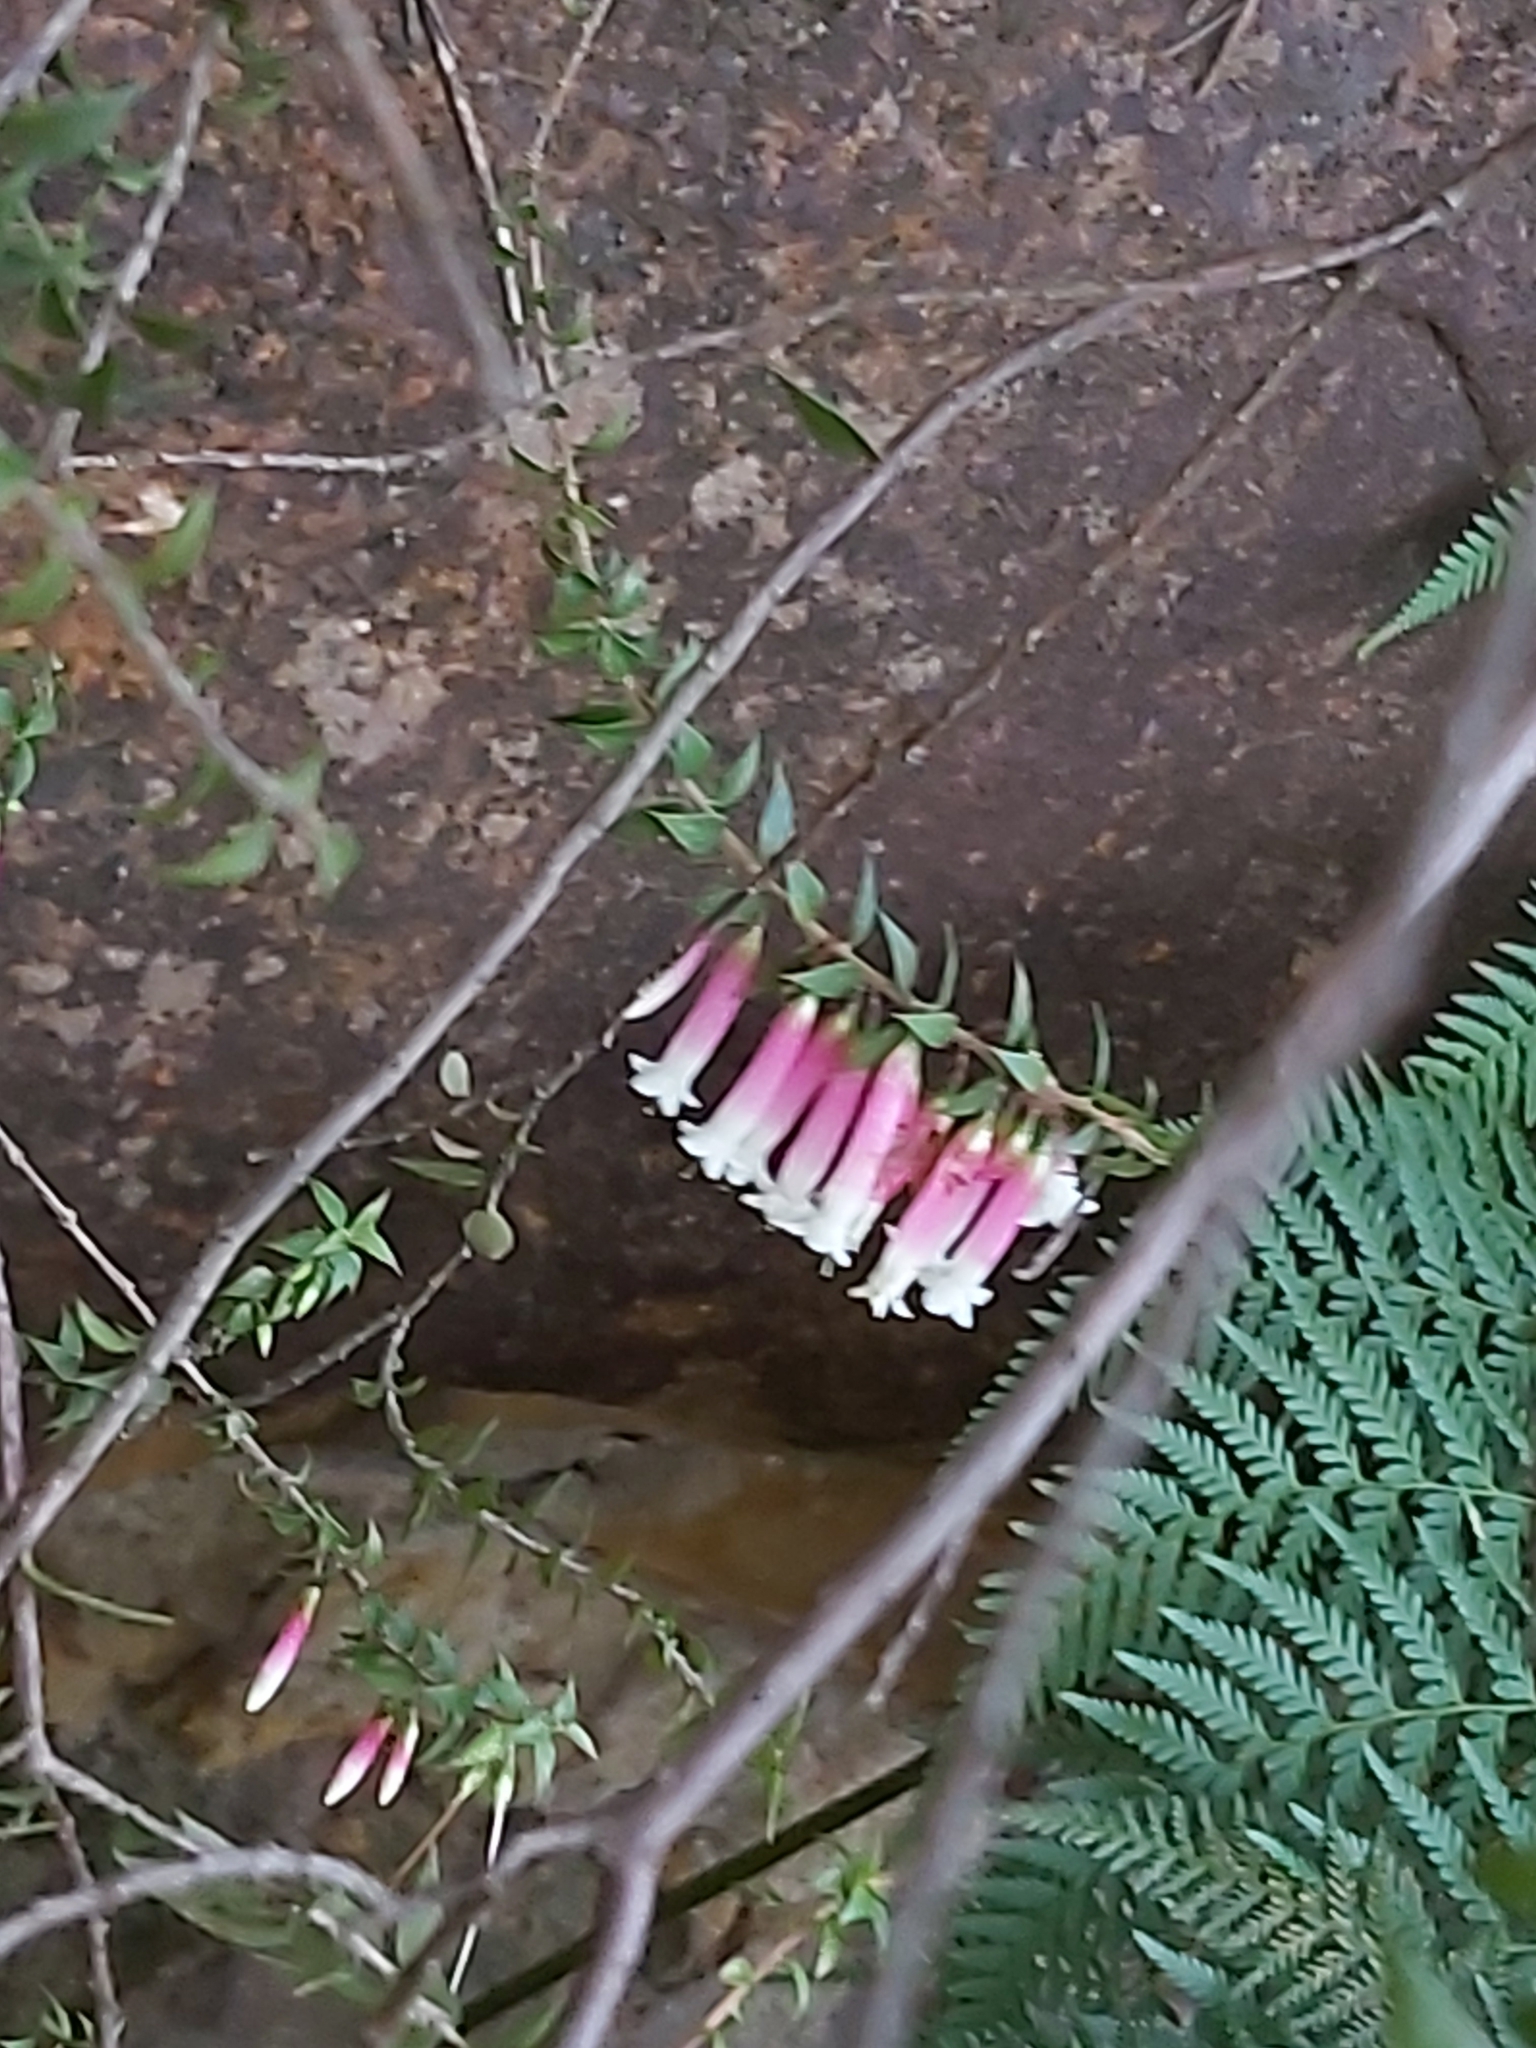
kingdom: Plantae
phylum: Tracheophyta
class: Magnoliopsida
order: Ericales
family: Ericaceae
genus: Epacris
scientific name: Epacris longiflora
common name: Fuchsia-heath
